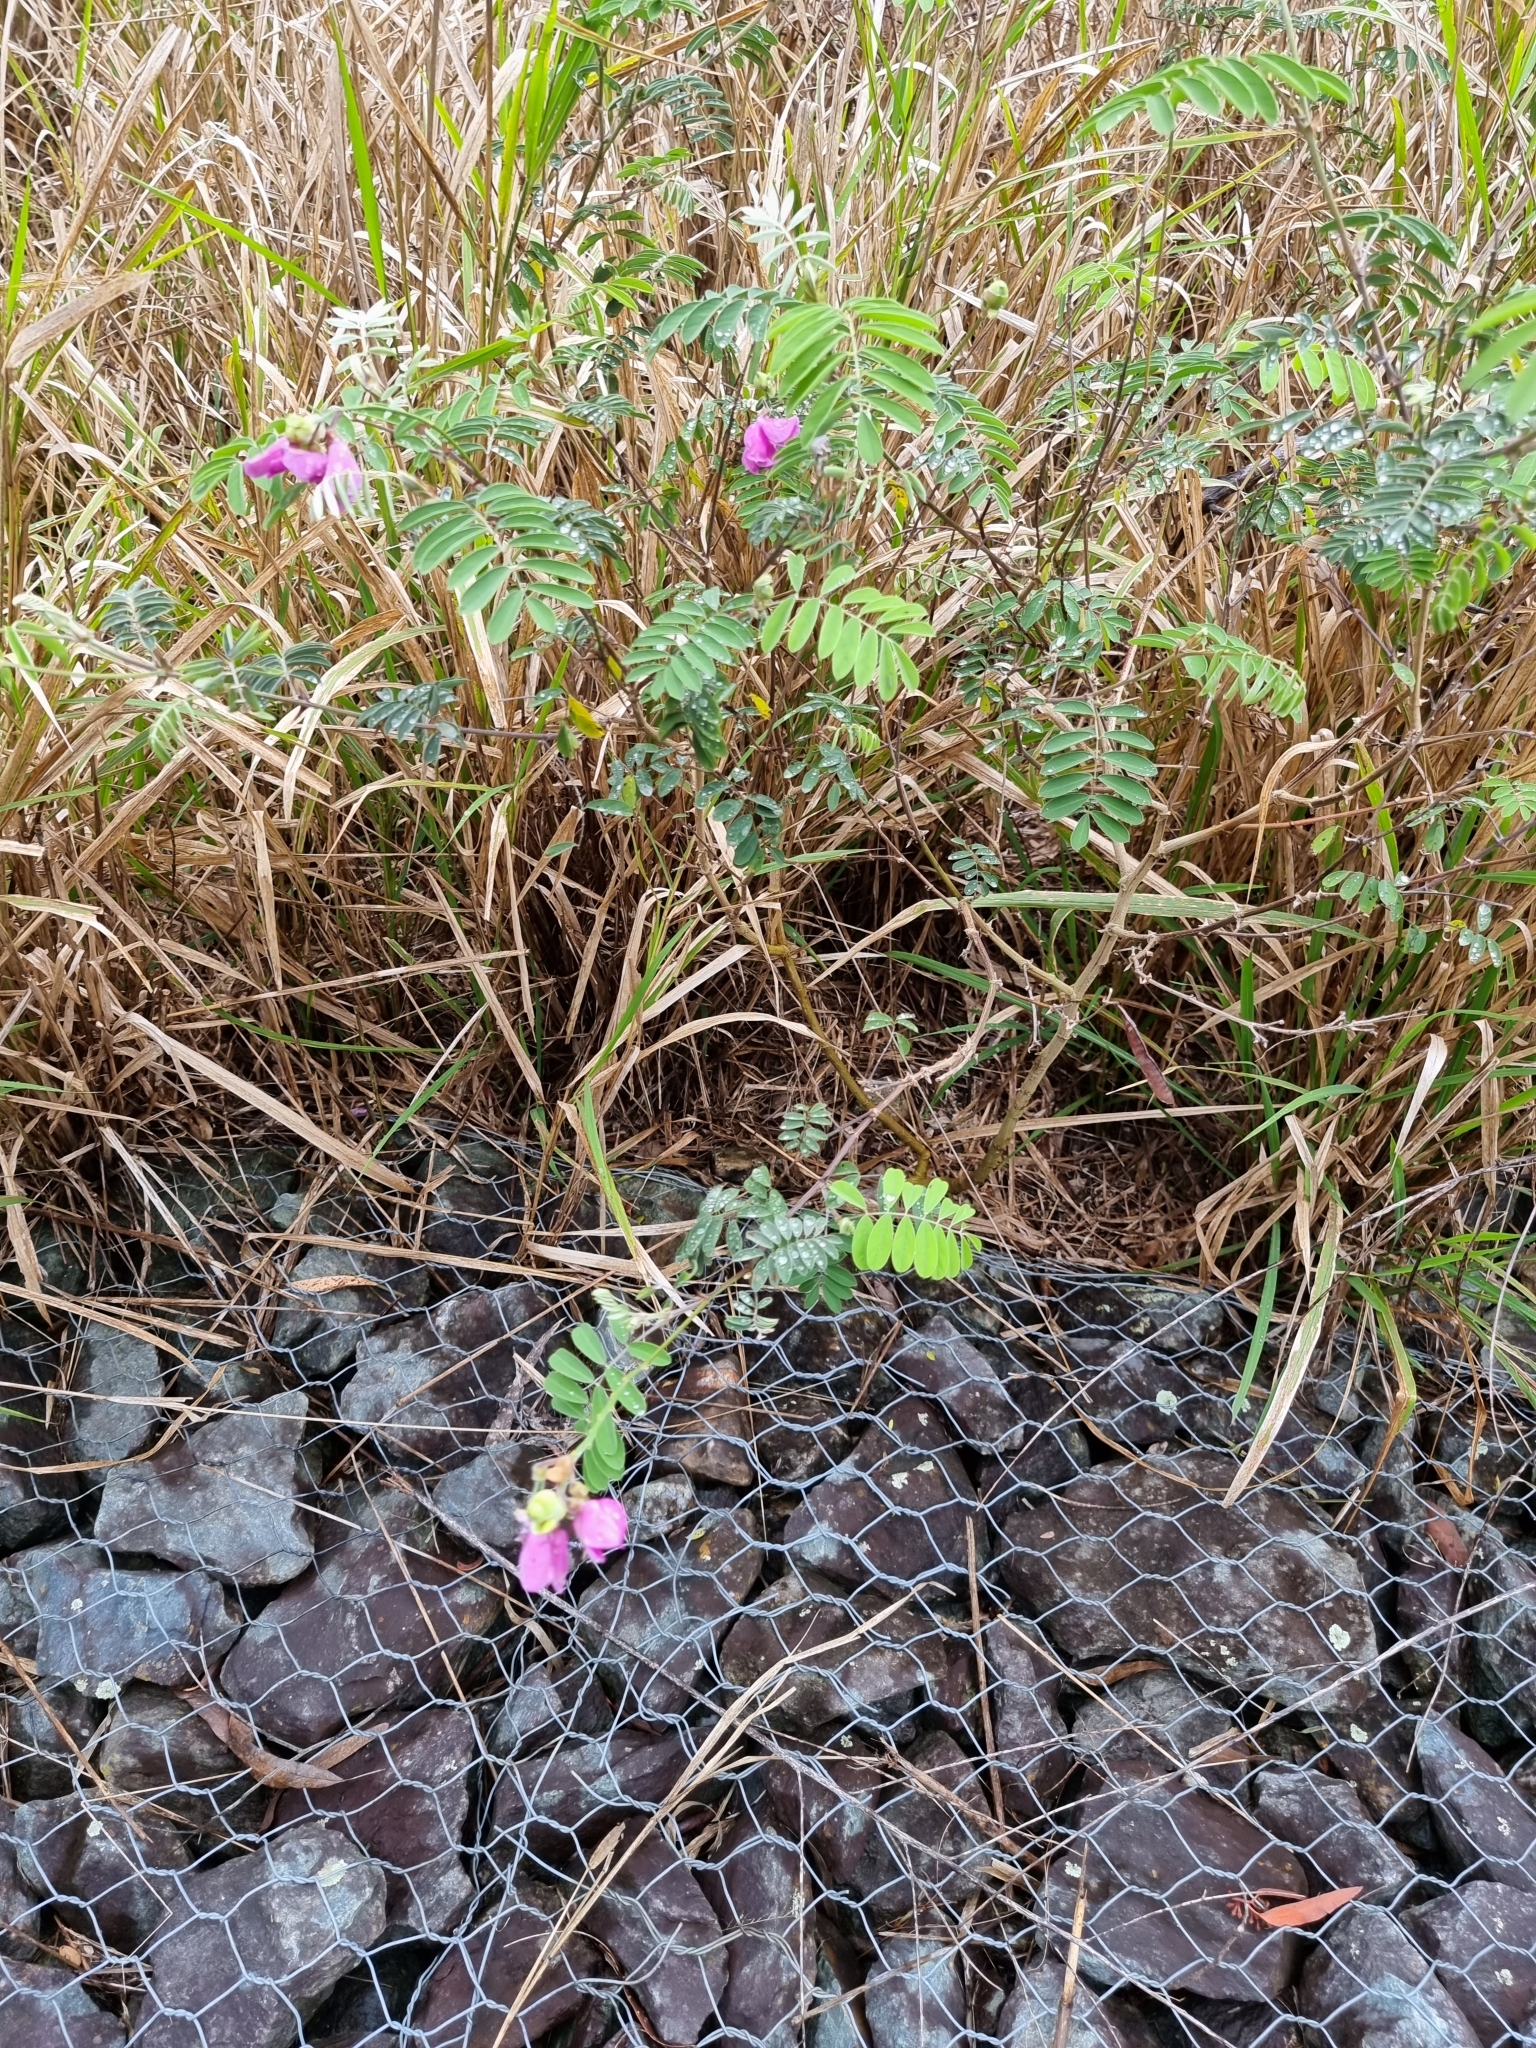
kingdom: Plantae
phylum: Tracheophyta
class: Magnoliopsida
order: Fabales
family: Fabaceae
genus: Tephrosia
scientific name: Tephrosia glomeruliflora
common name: Pink tephrosia
